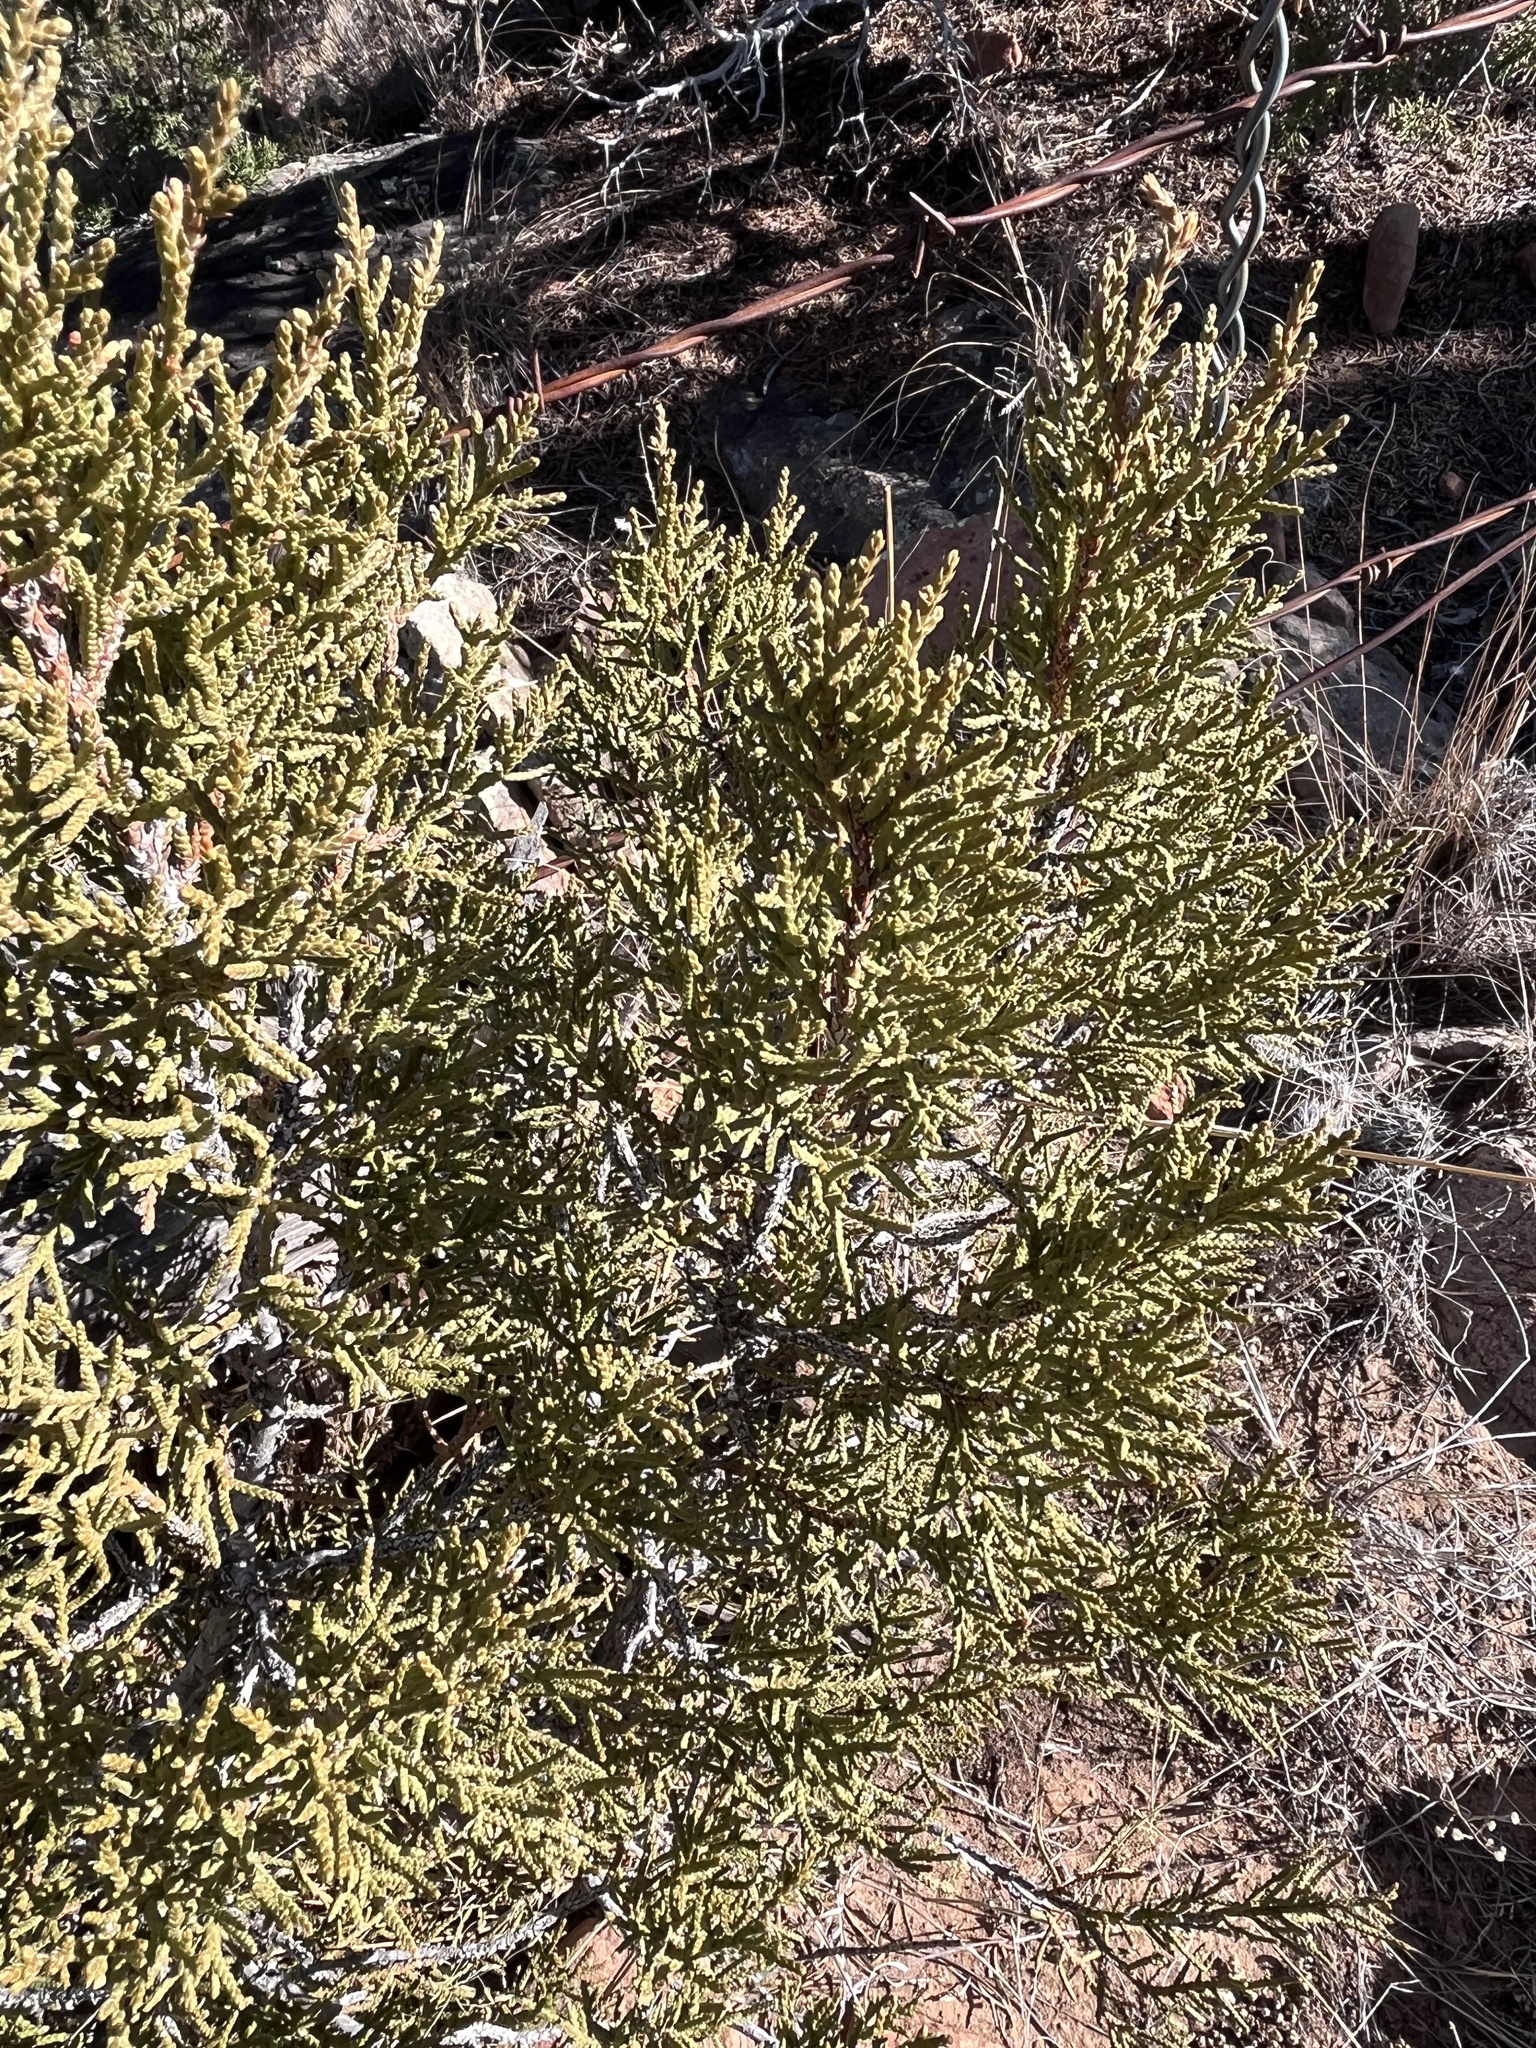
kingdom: Plantae
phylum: Tracheophyta
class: Pinopsida
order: Pinales
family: Cupressaceae
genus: Juniperus
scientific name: Juniperus monosperma
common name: One-seed juniper
